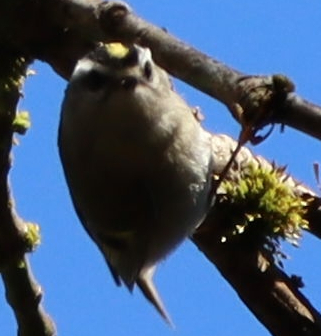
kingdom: Animalia
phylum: Chordata
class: Aves
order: Passeriformes
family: Regulidae
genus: Regulus
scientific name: Regulus satrapa
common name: Golden-crowned kinglet
